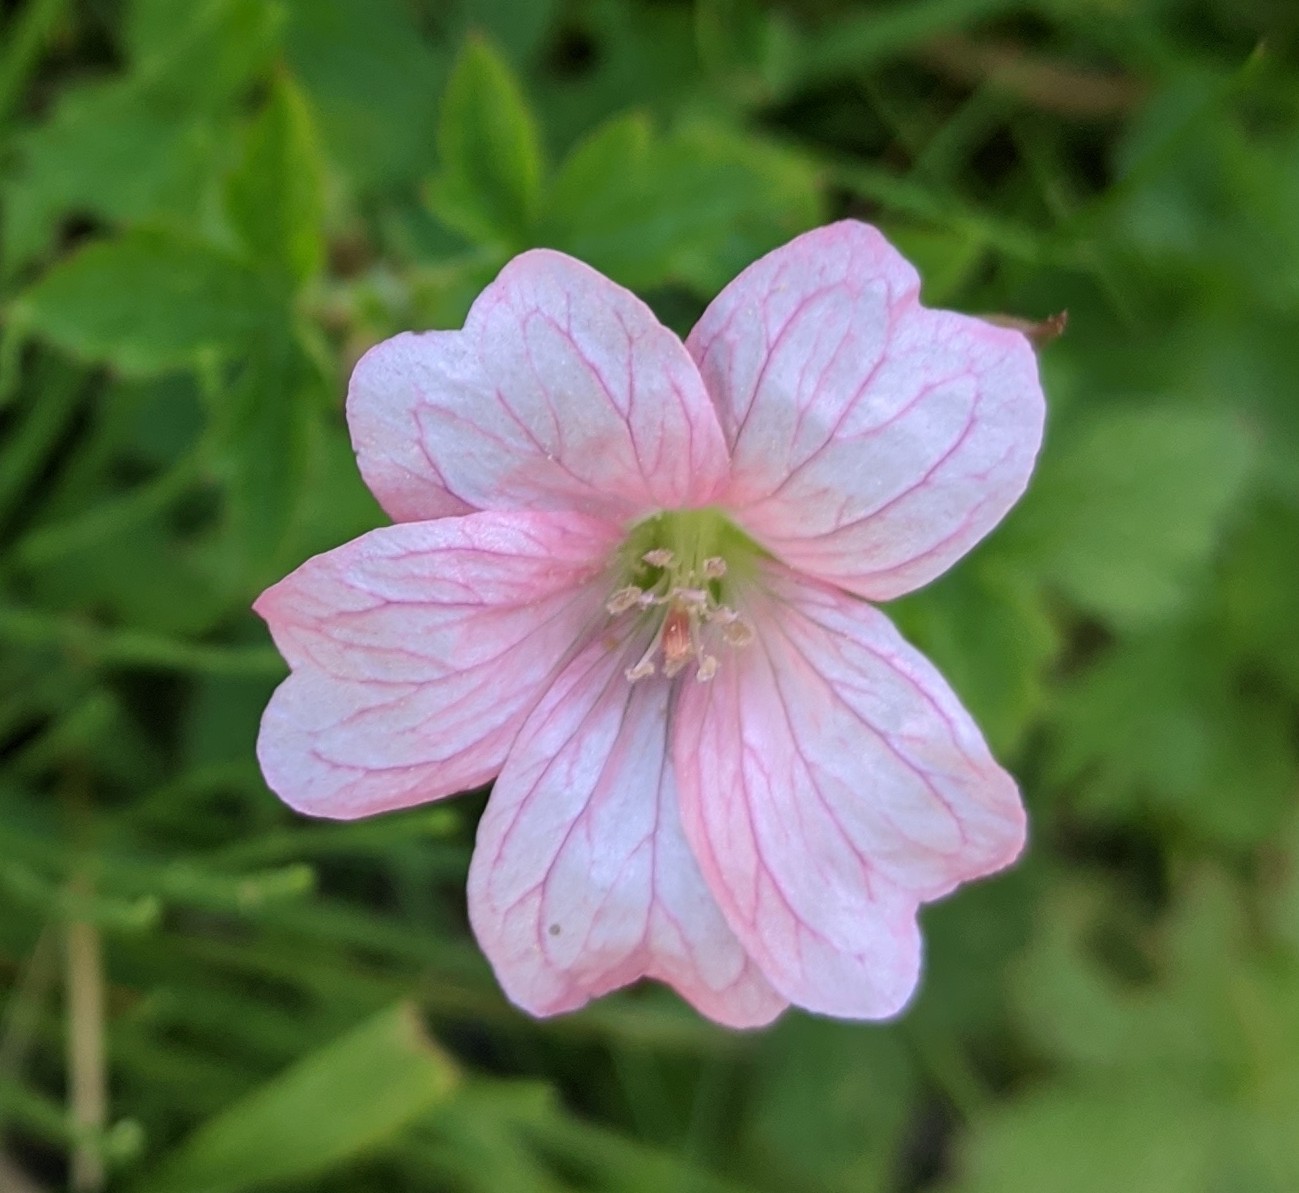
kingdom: Plantae
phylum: Tracheophyta
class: Magnoliopsida
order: Geraniales
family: Geraniaceae
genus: Geranium
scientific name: Geranium oxonianum
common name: Druce's crane's-bill
